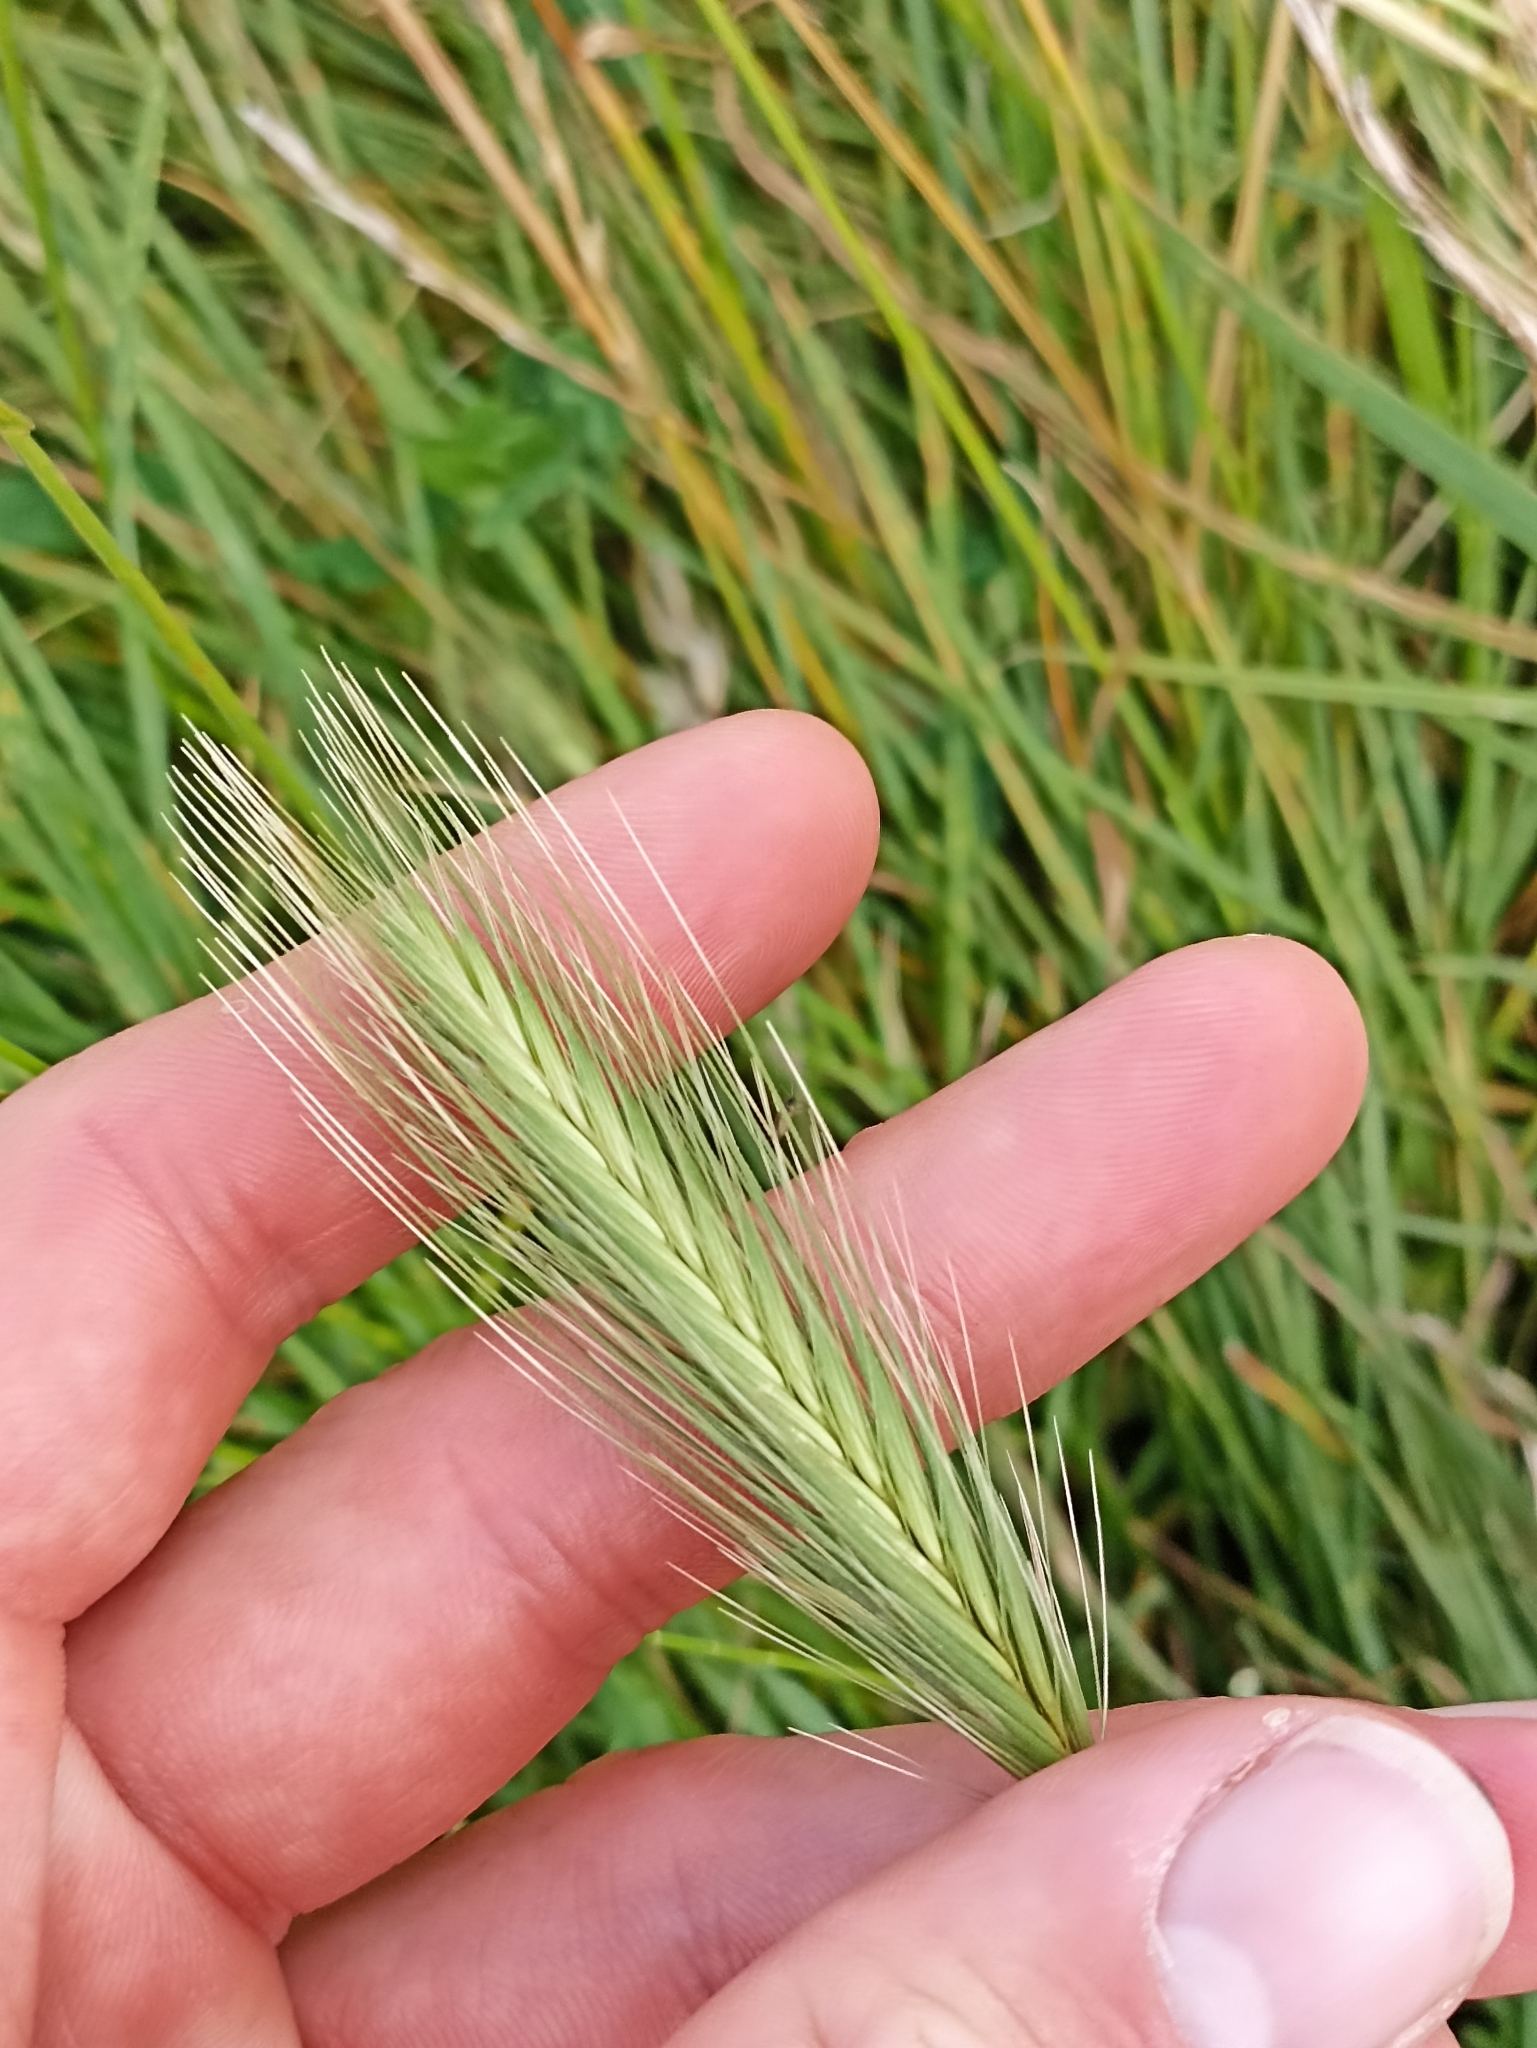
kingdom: Plantae
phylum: Tracheophyta
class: Liliopsida
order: Poales
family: Poaceae
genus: Hordeum
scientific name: Hordeum murinum
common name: Wall barley
